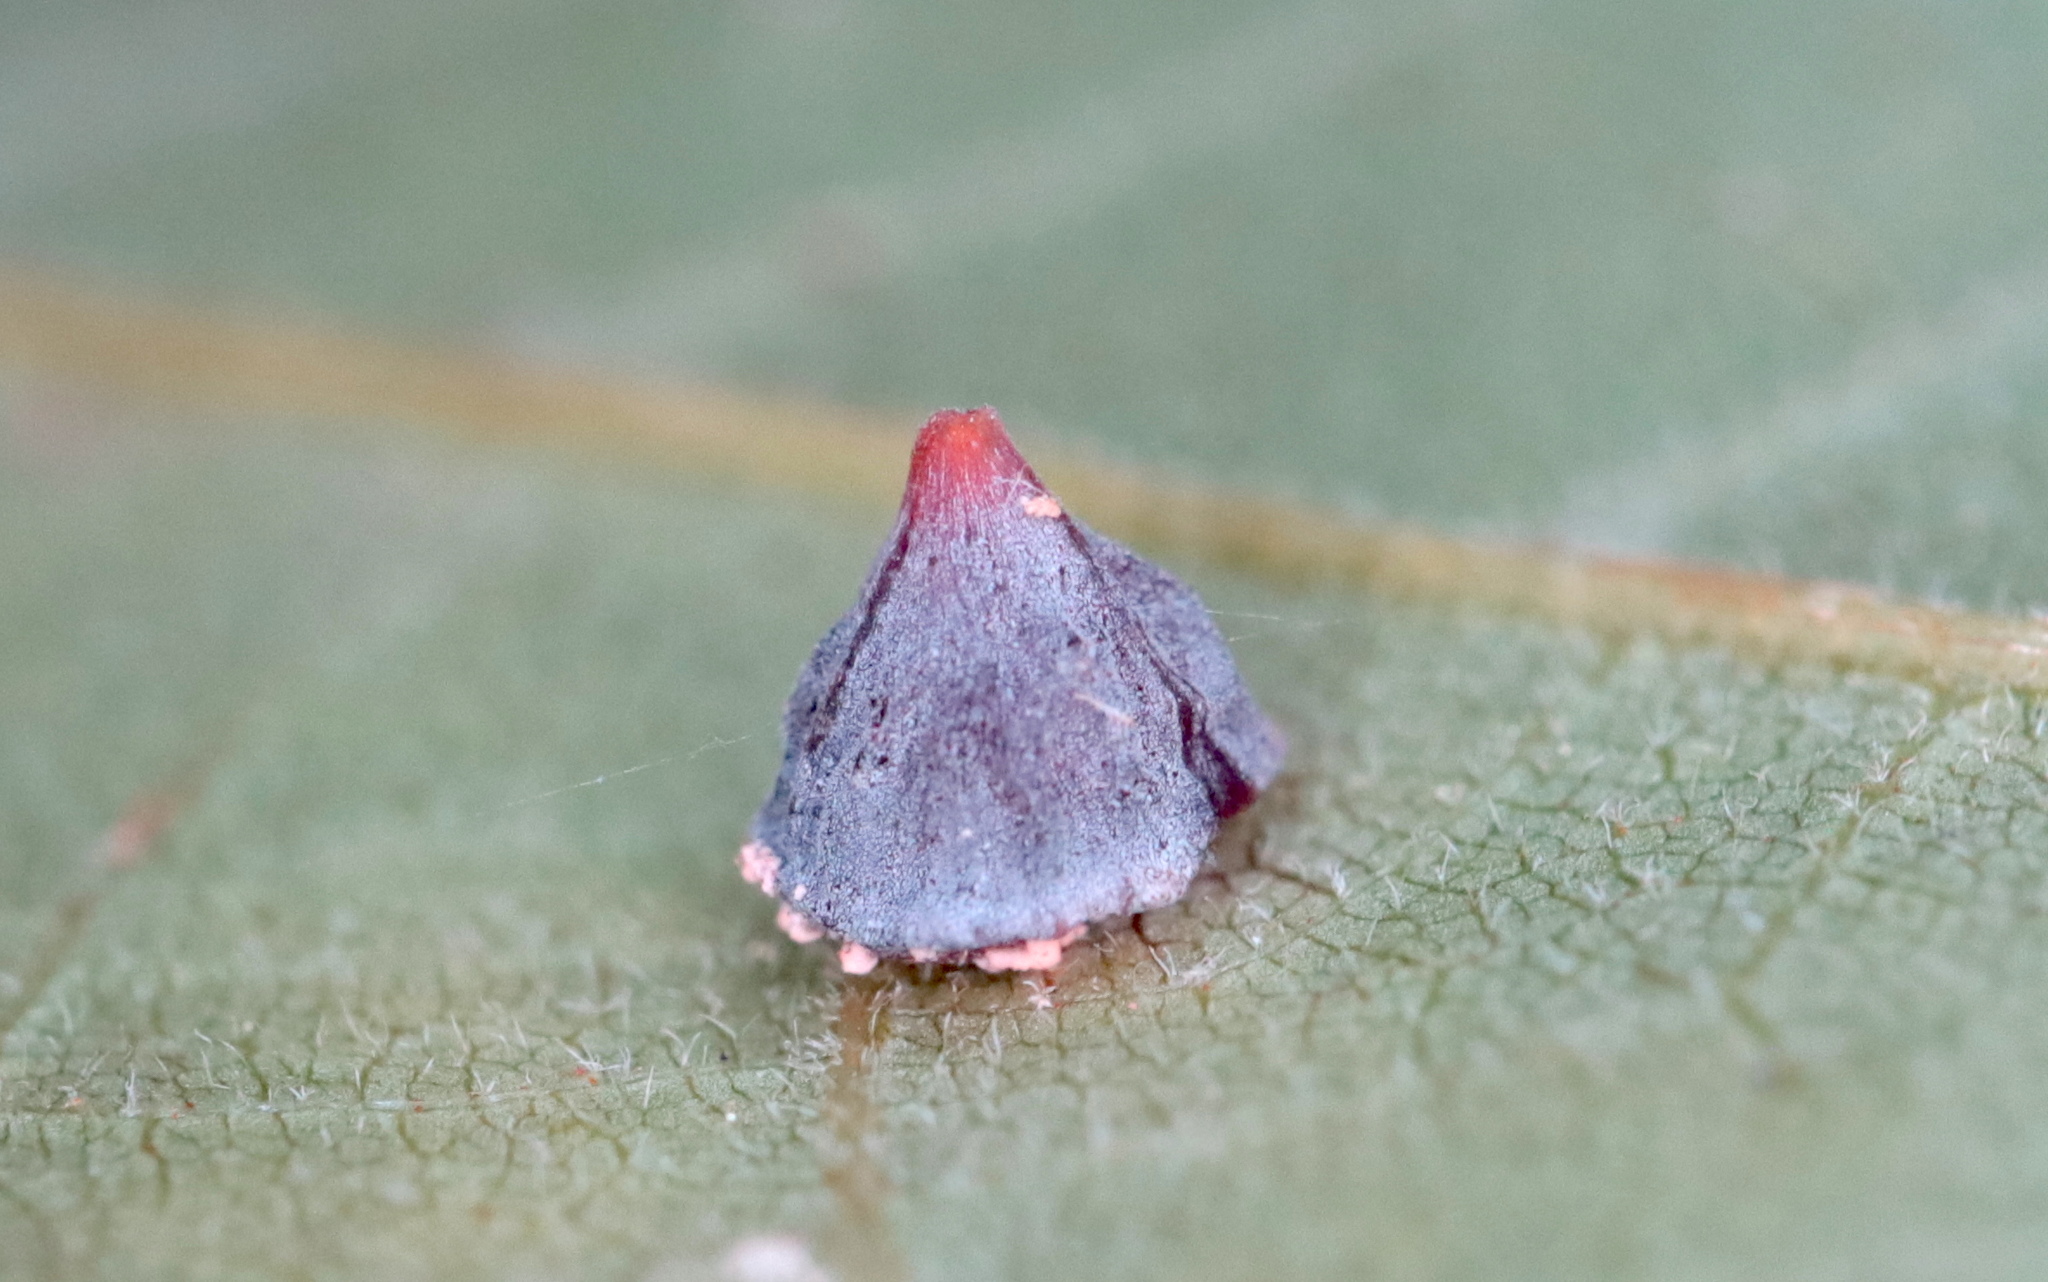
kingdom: Animalia
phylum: Arthropoda
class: Insecta
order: Diptera
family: Cecidomyiidae
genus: Caryomyia
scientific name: Caryomyia sanguinolenta
